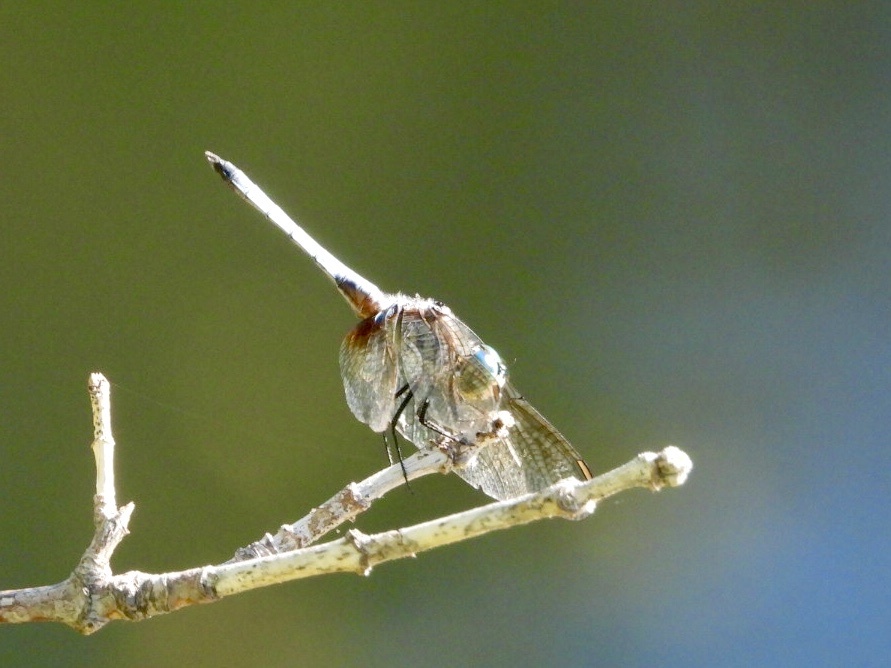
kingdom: Animalia
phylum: Arthropoda
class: Insecta
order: Odonata
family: Libellulidae
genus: Pachydiplax
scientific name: Pachydiplax longipennis
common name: Blue dasher
